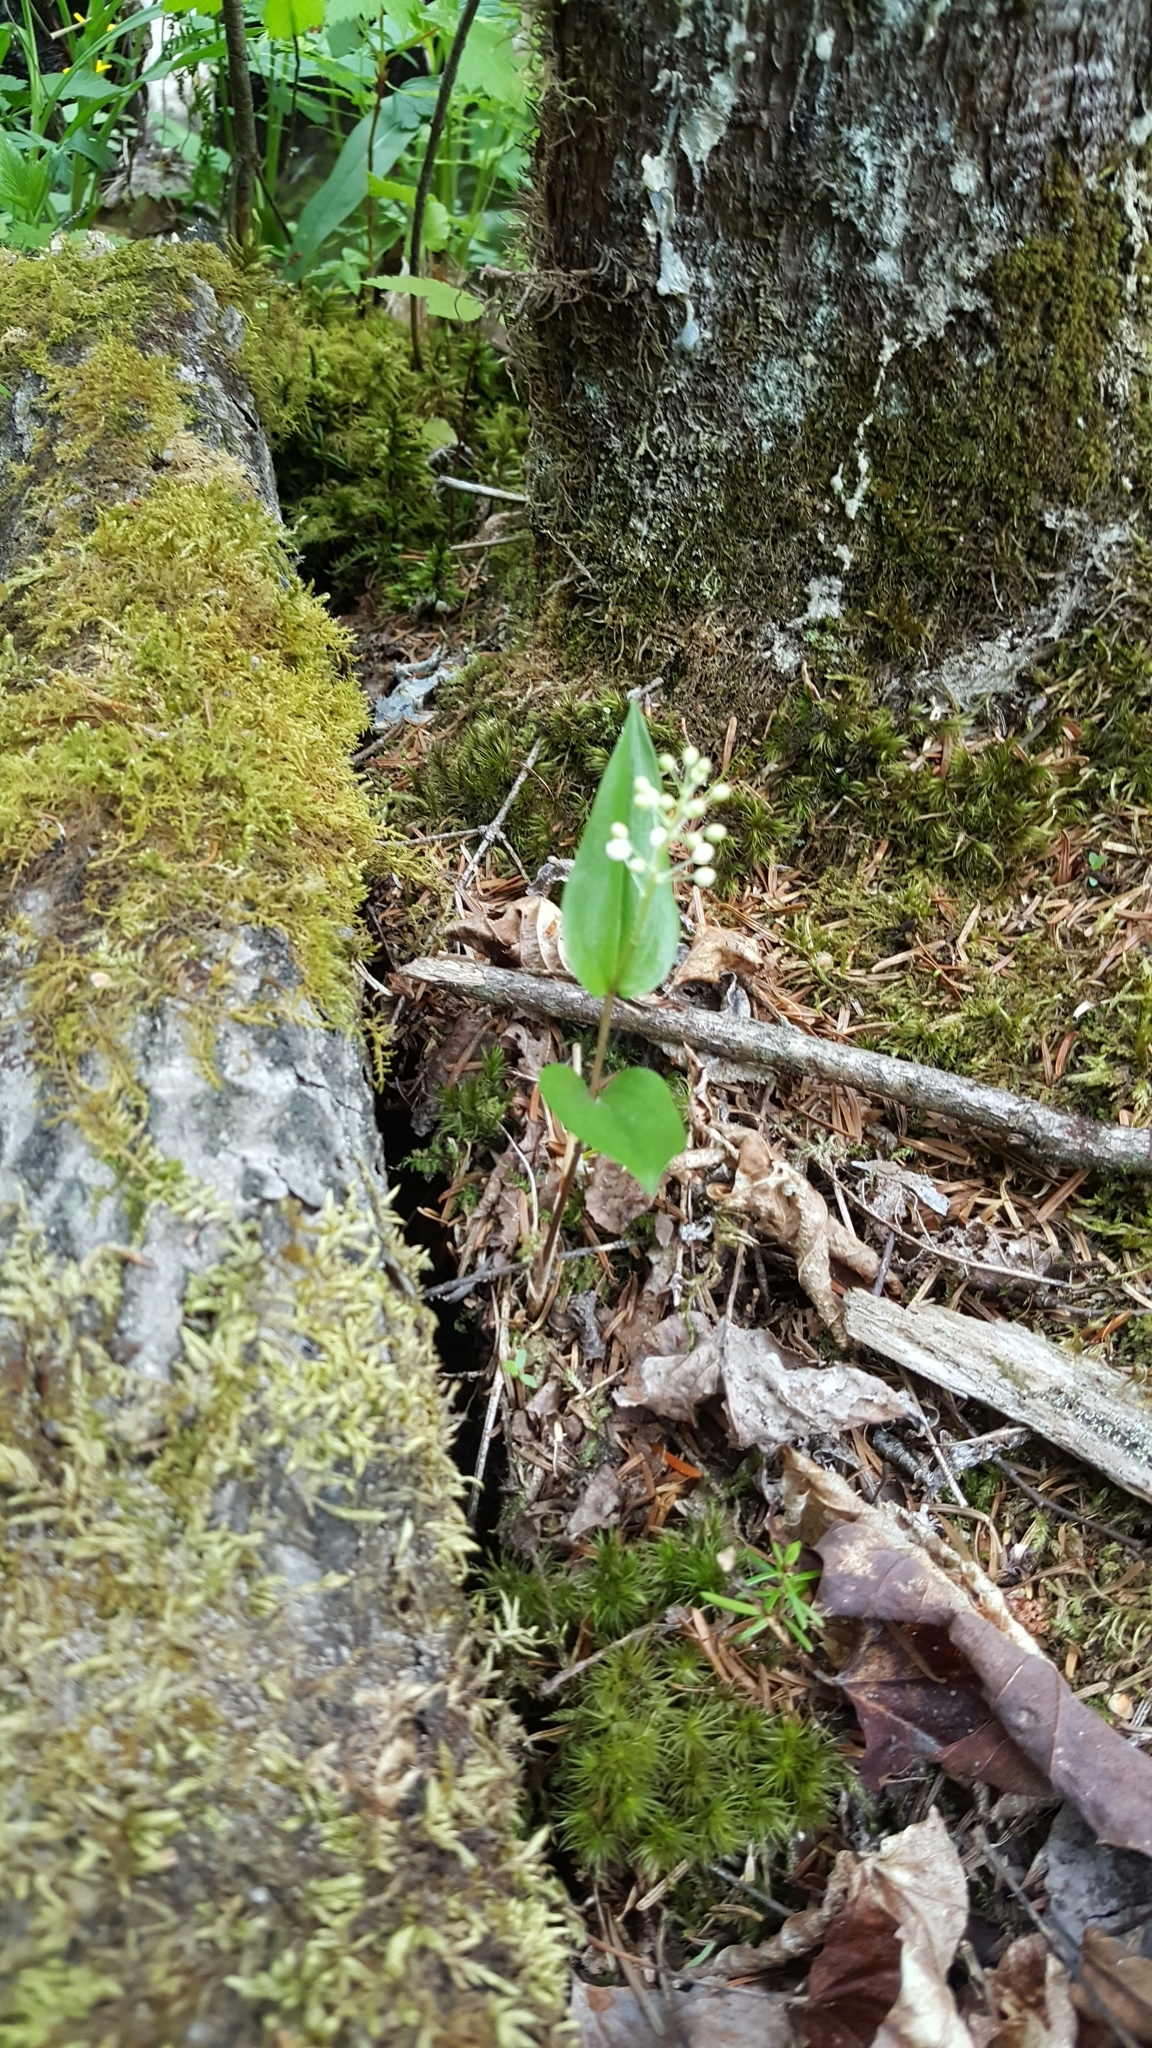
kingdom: Plantae
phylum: Tracheophyta
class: Liliopsida
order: Asparagales
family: Asparagaceae
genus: Maianthemum
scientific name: Maianthemum canadense
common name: False lily-of-the-valley
